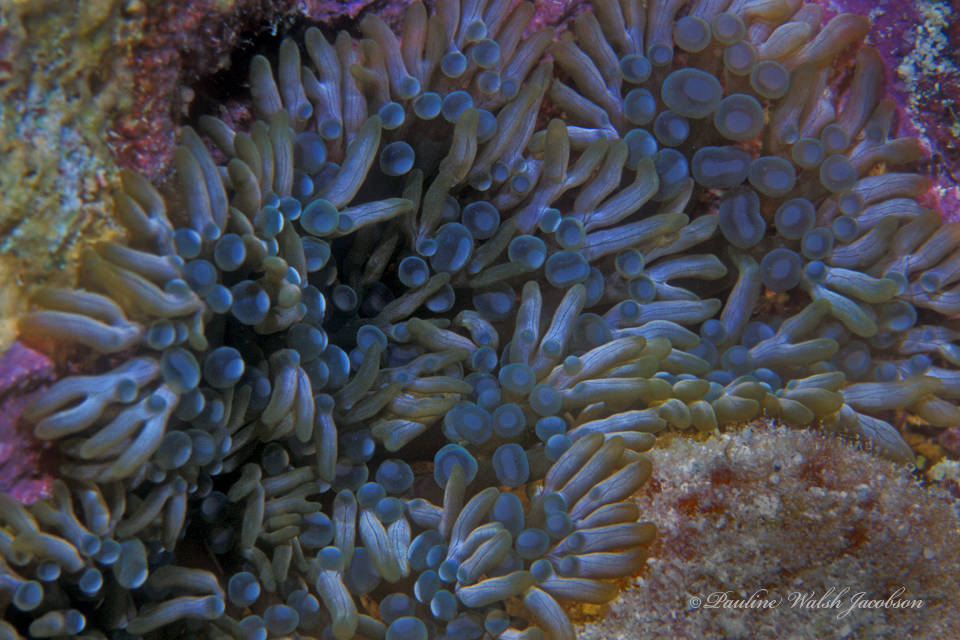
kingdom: Animalia
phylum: Cnidaria
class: Anthozoa
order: Actiniaria
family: Aliciidae
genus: Lebrunia
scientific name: Lebrunia neglecta
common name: Branching anemone
